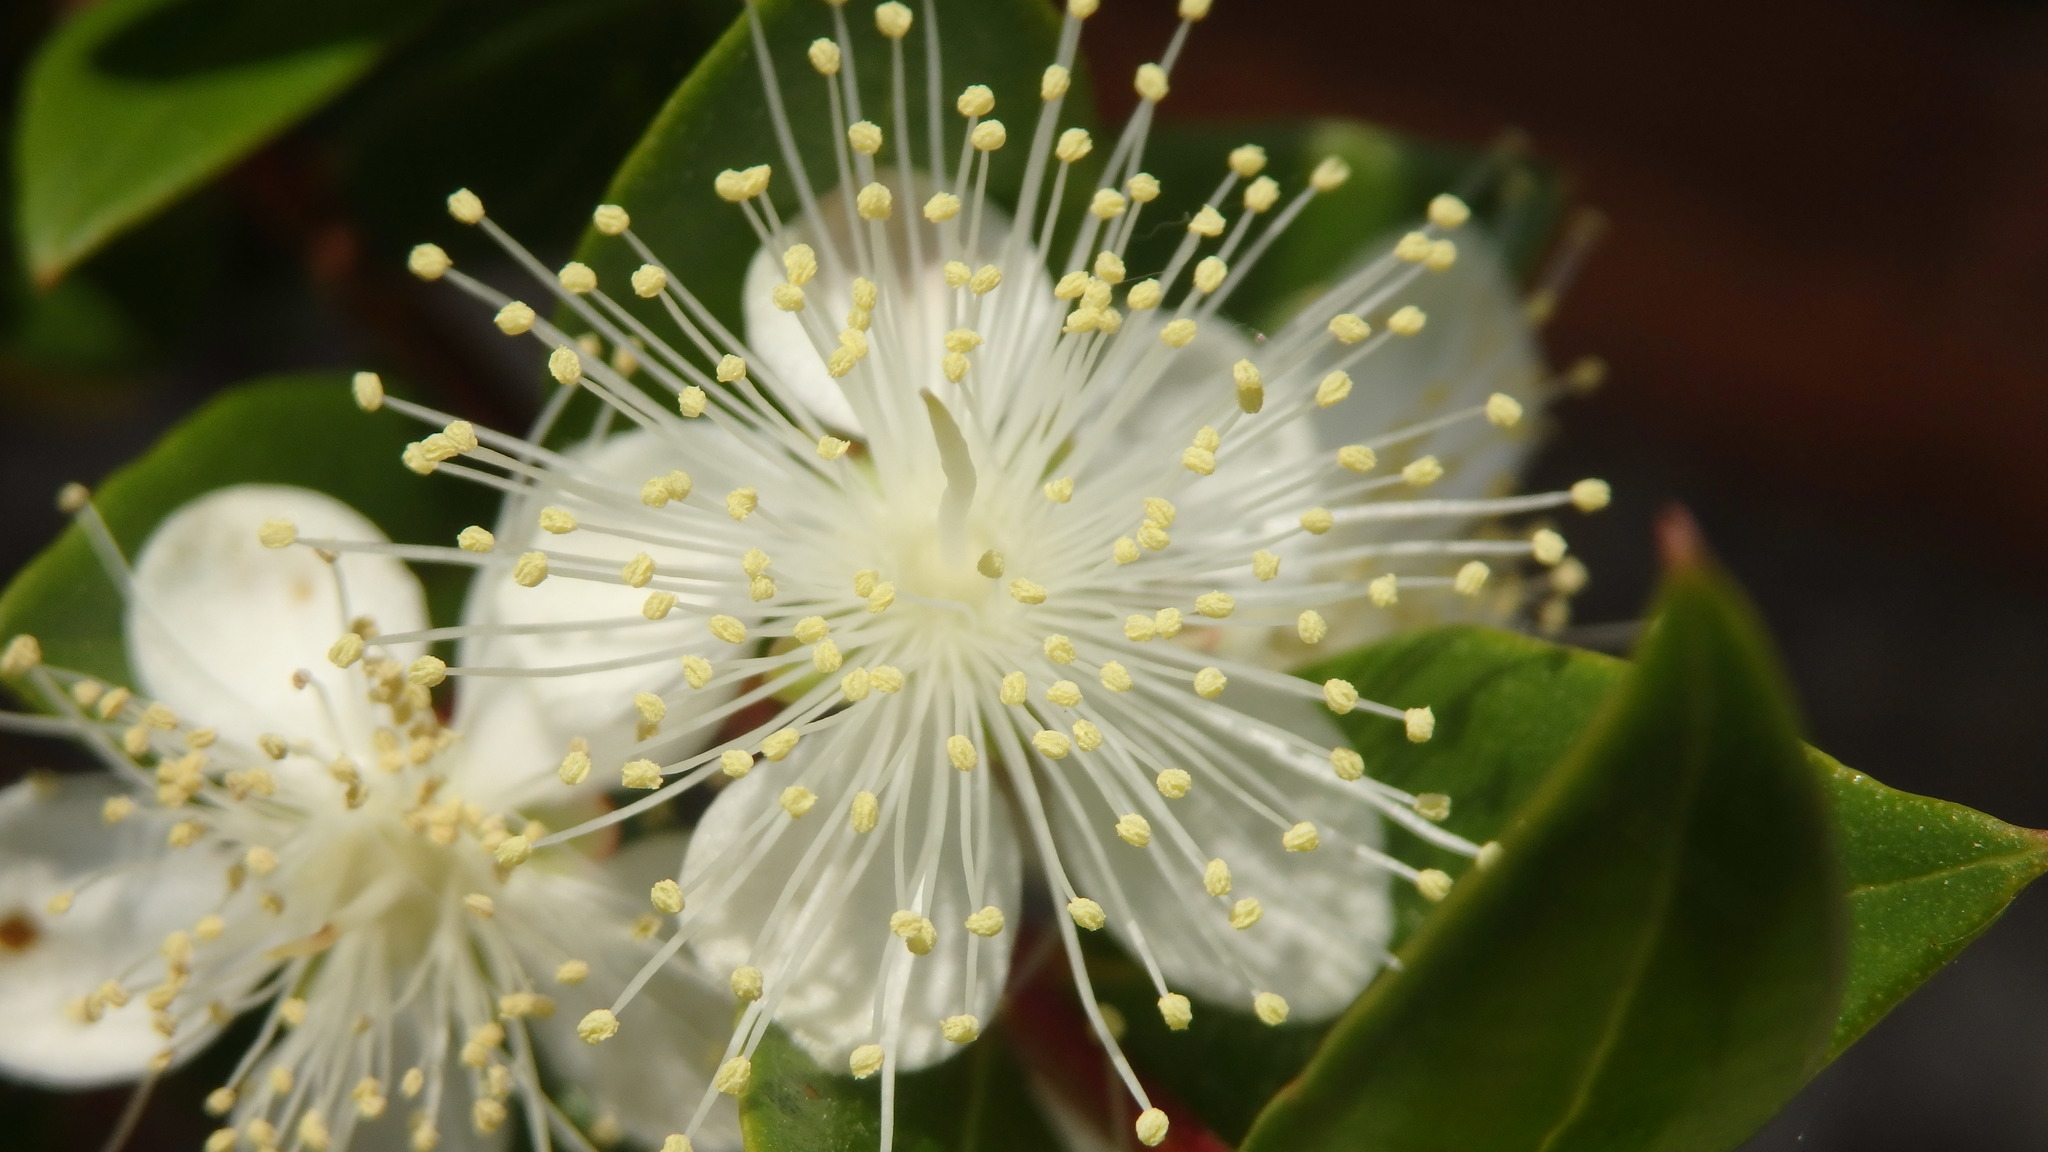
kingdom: Plantae
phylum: Tracheophyta
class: Magnoliopsida
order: Myrtales
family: Myrtaceae
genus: Myrtus
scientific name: Myrtus communis
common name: Myrtle
